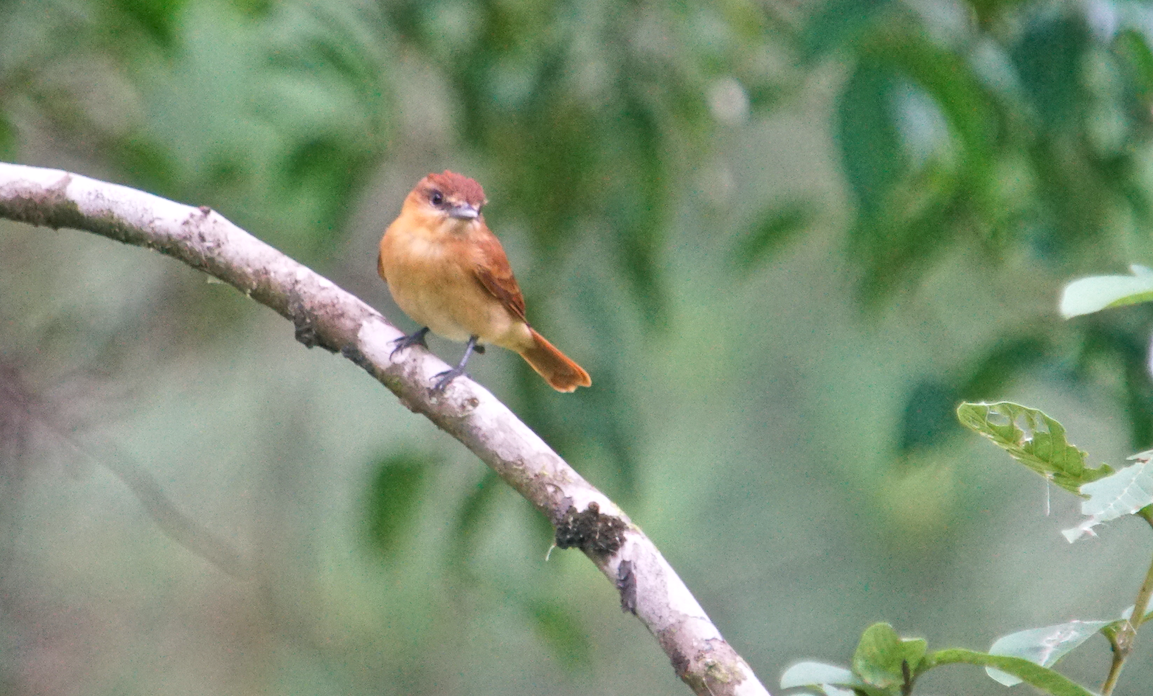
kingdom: Animalia
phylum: Chordata
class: Aves
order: Passeriformes
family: Cotingidae
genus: Pachyramphus
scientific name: Pachyramphus cinnamomeus
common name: Cinnamon becard
